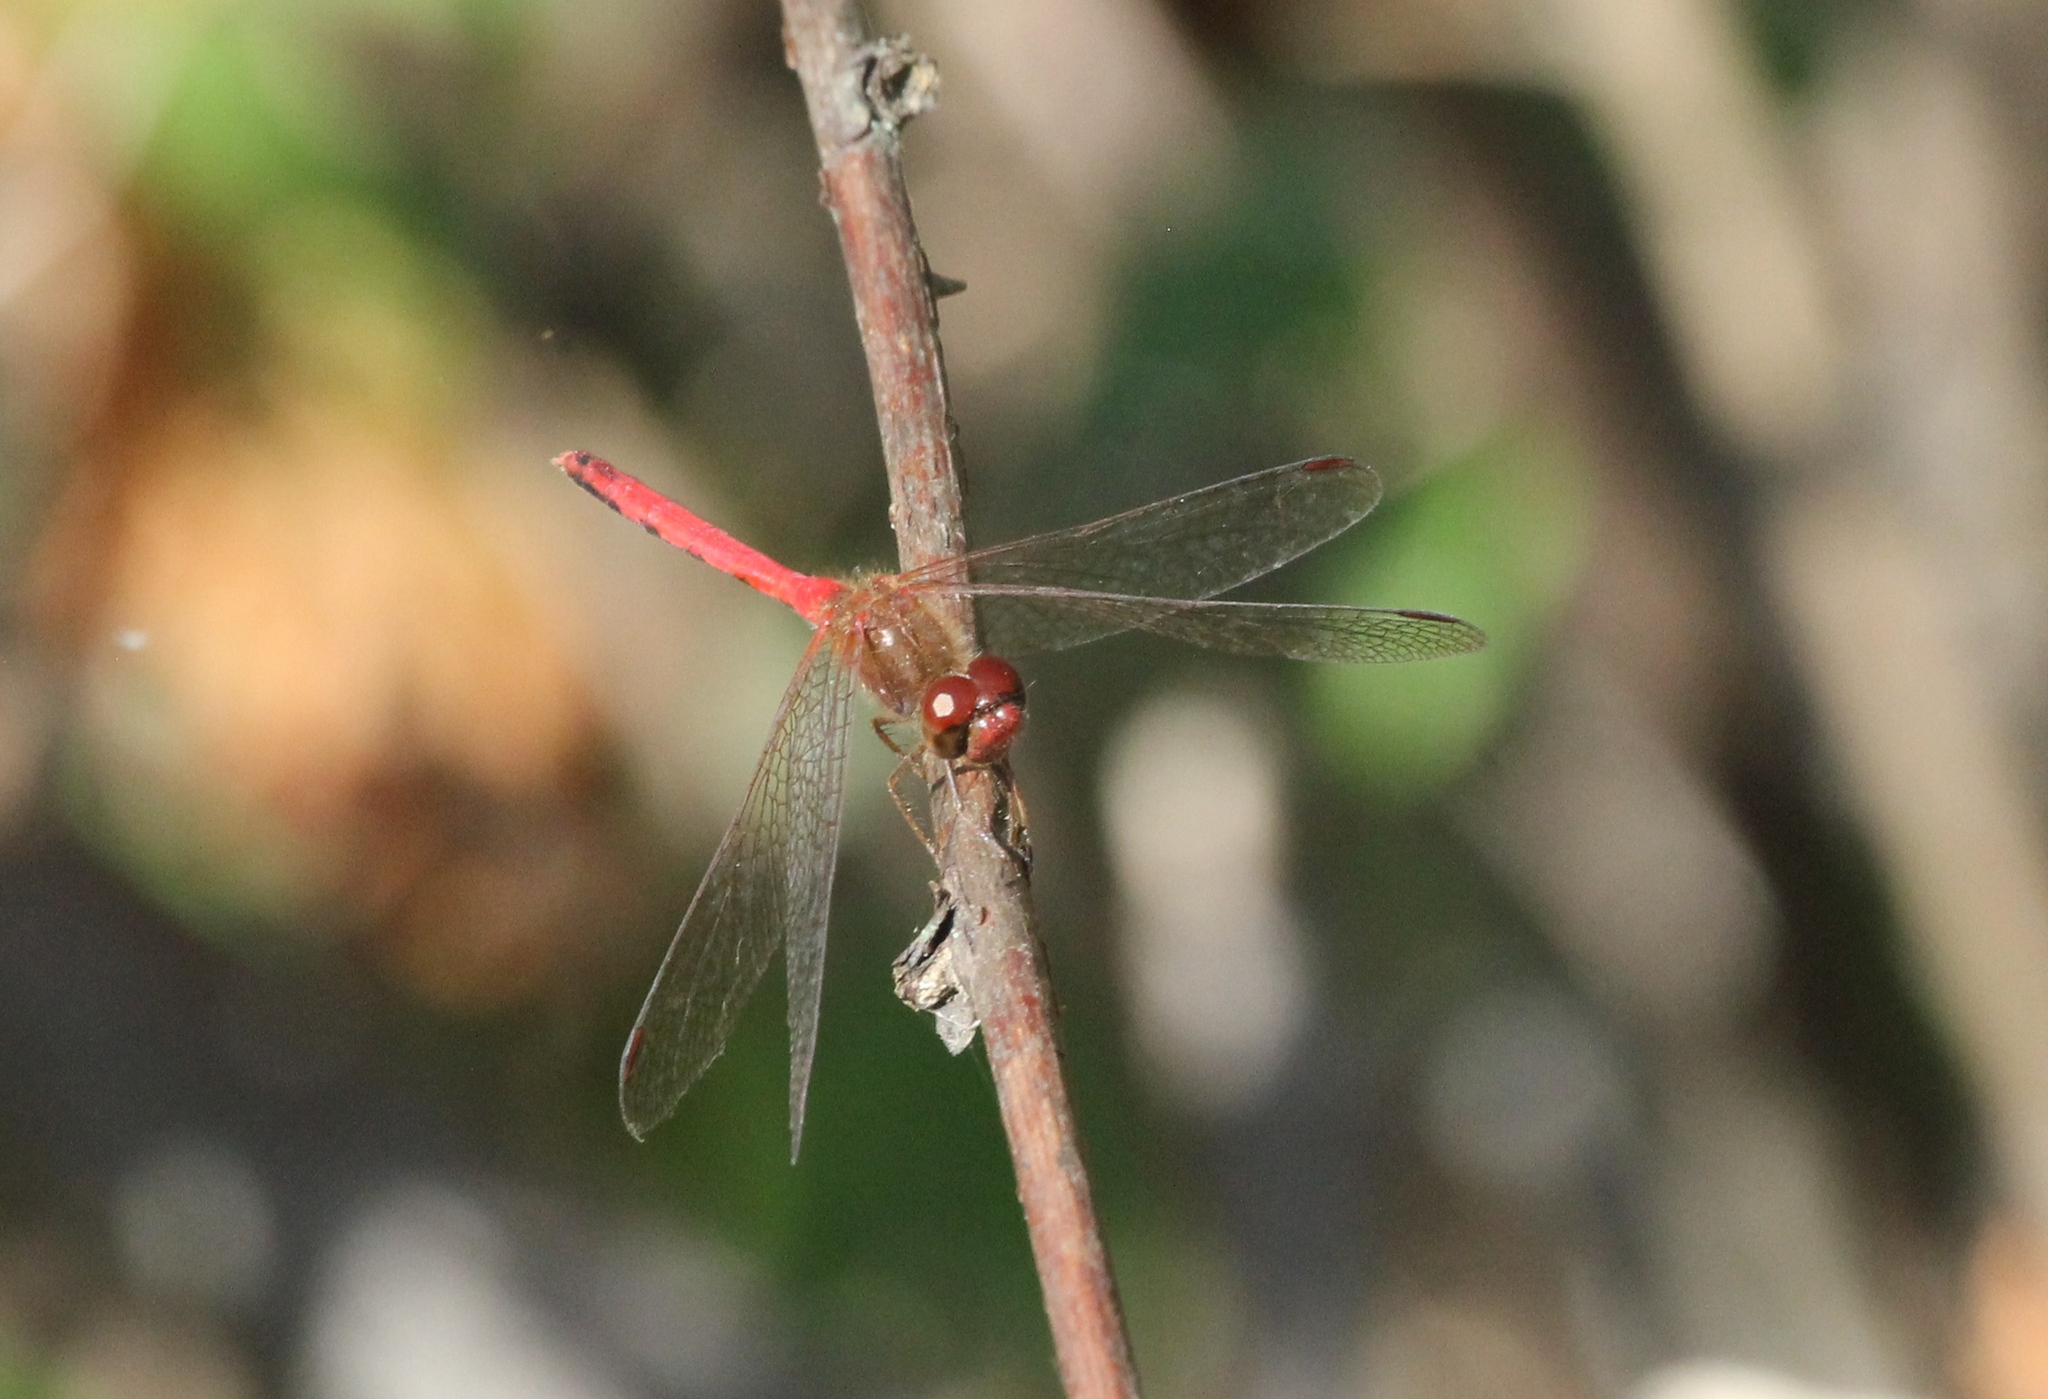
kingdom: Animalia
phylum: Arthropoda
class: Insecta
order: Odonata
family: Libellulidae
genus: Sympetrum
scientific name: Sympetrum vicinum
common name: Autumn meadowhawk
